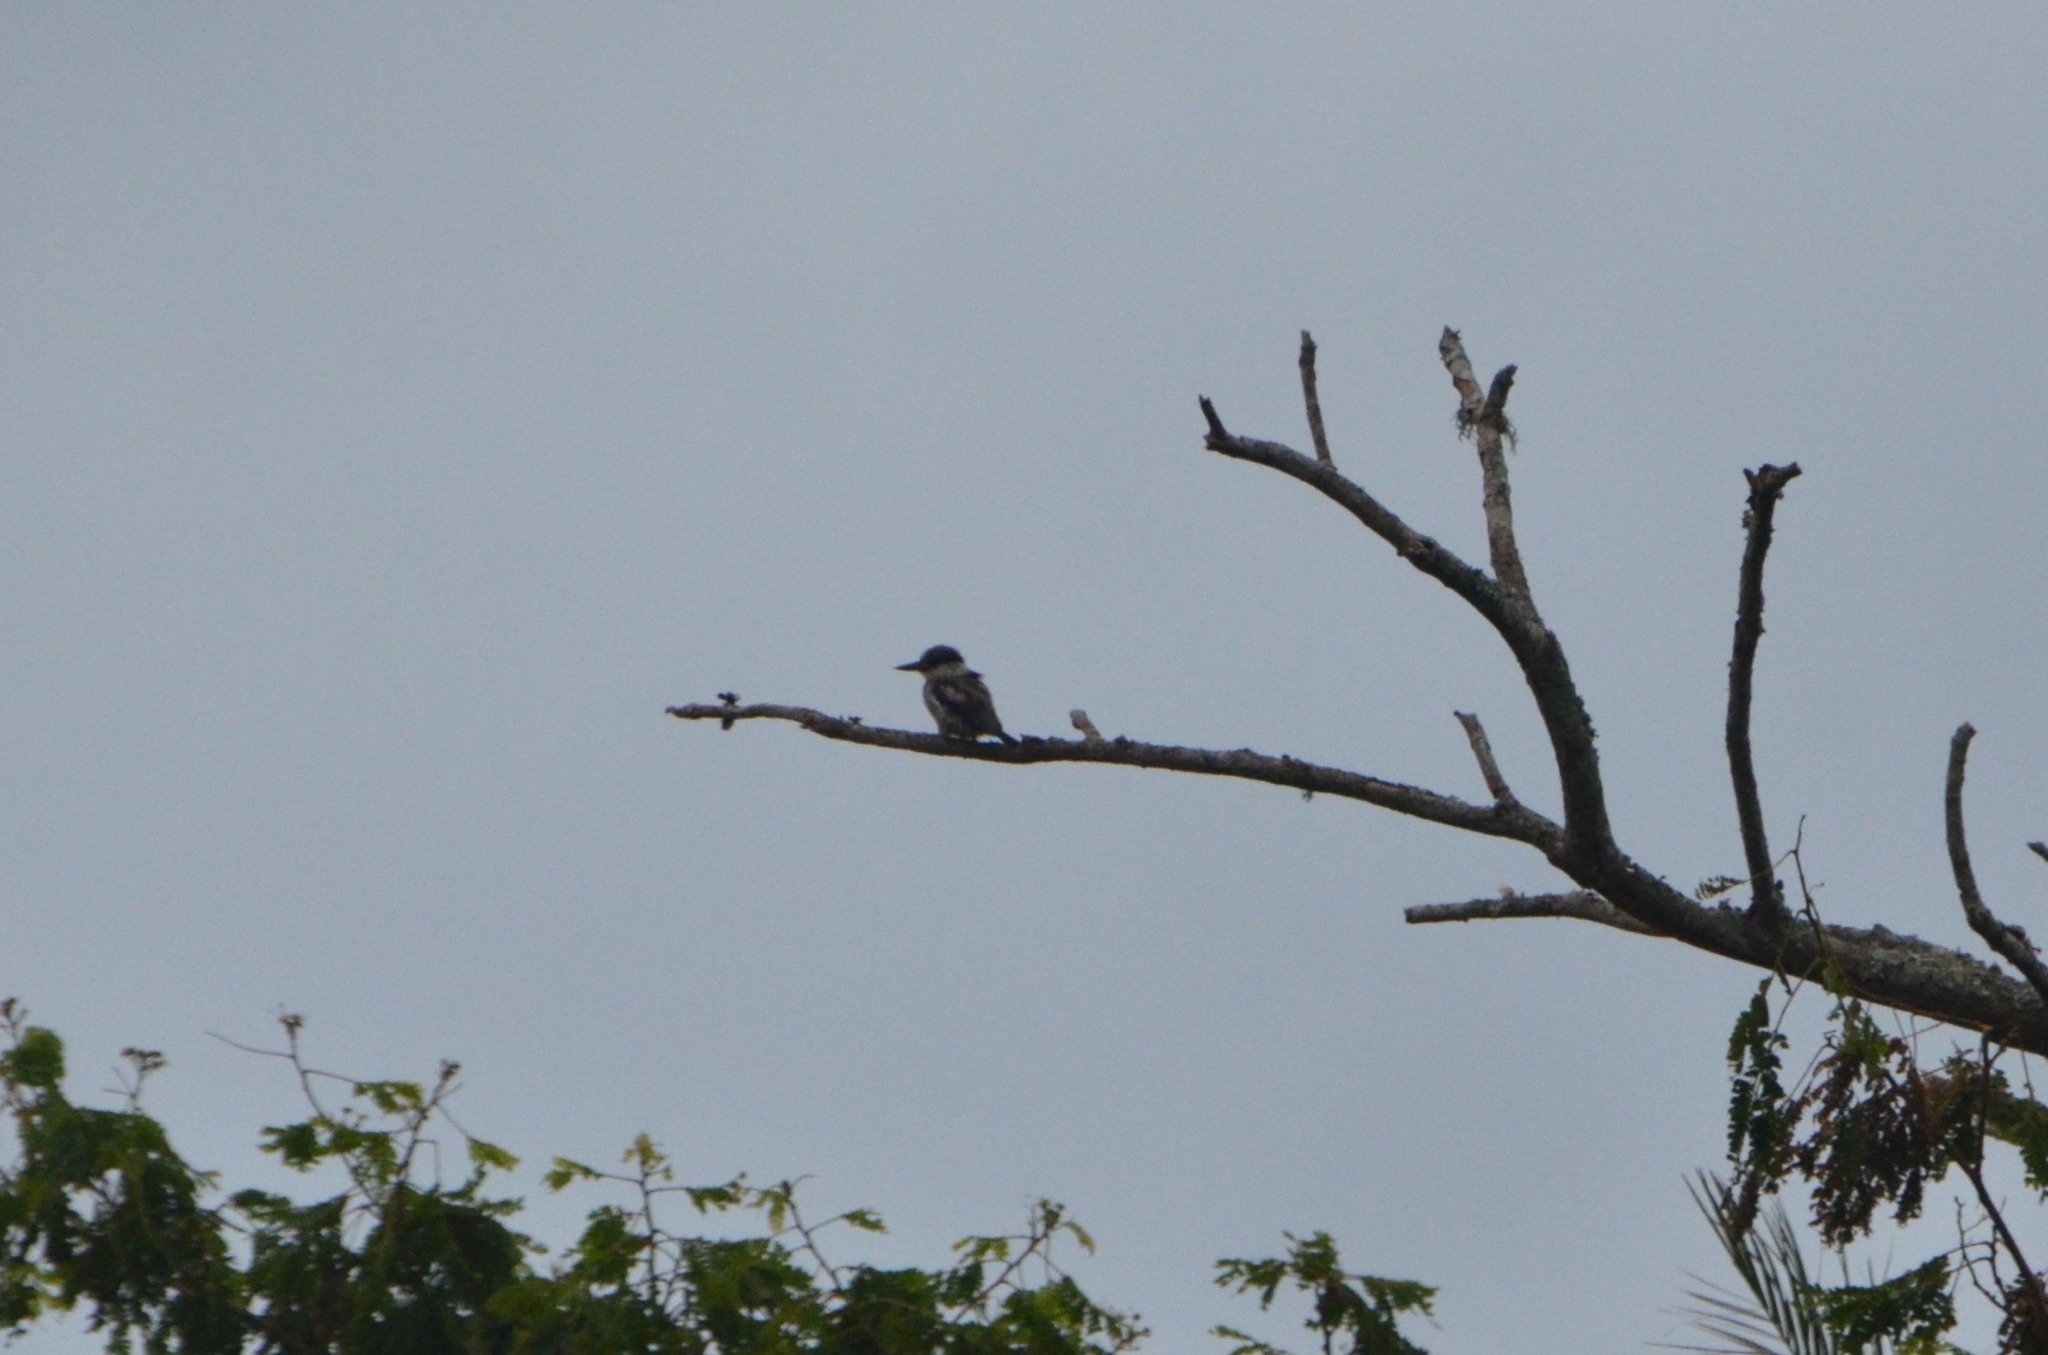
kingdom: Animalia
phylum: Chordata
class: Aves
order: Coraciiformes
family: Alcedinidae
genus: Halcyon
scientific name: Halcyon chelicuti
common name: Striped kingfisher
